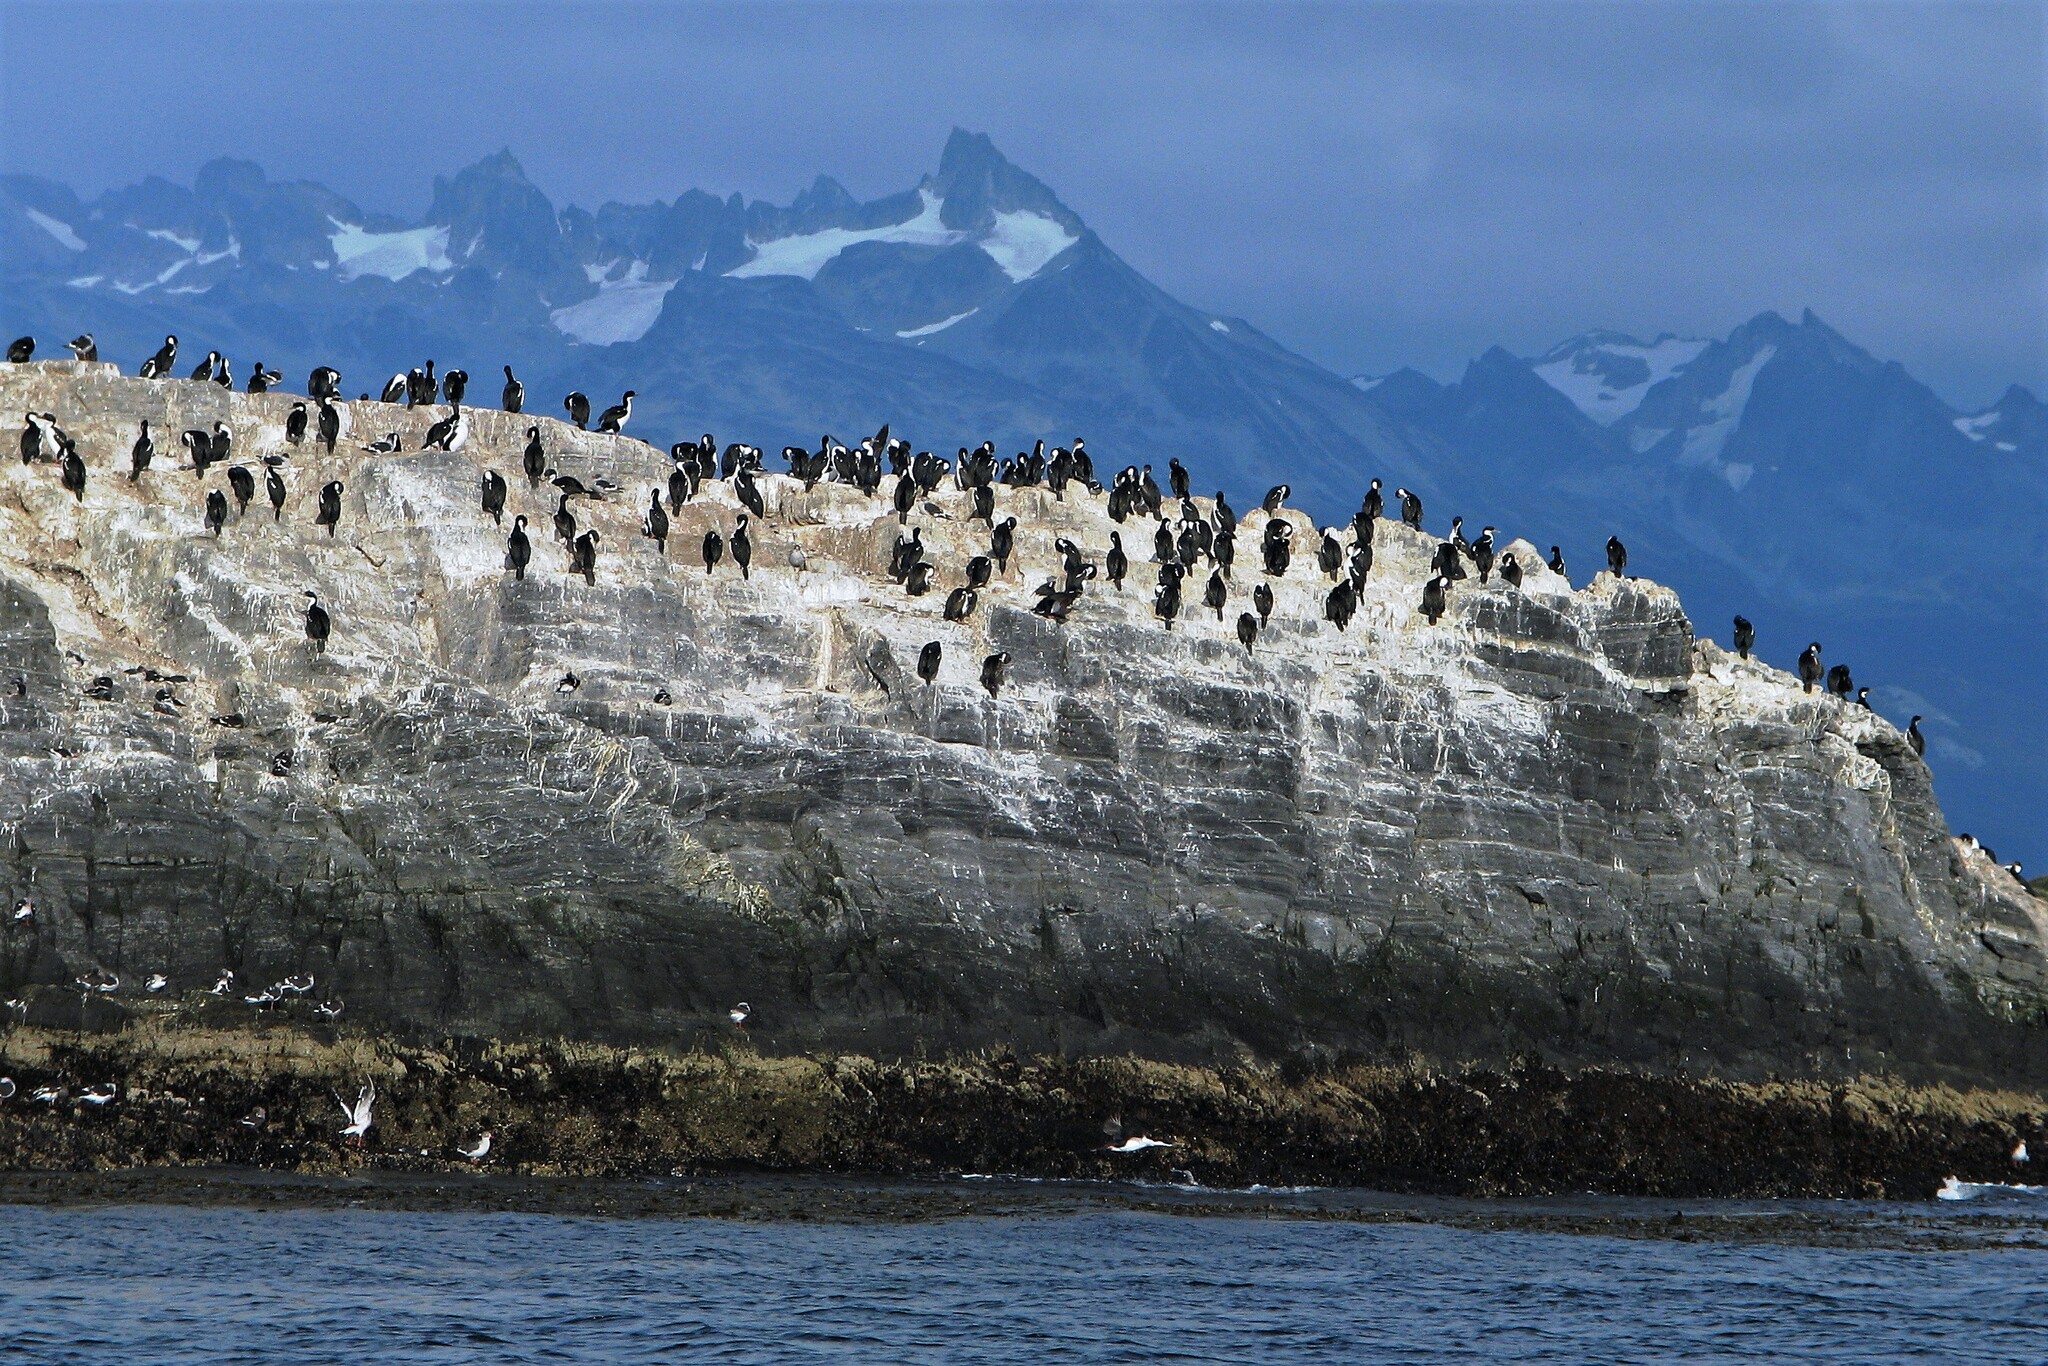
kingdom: Animalia
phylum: Chordata
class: Aves
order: Suliformes
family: Phalacrocoracidae
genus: Leucocarbo
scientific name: Leucocarbo atriceps
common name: Imperial shag
